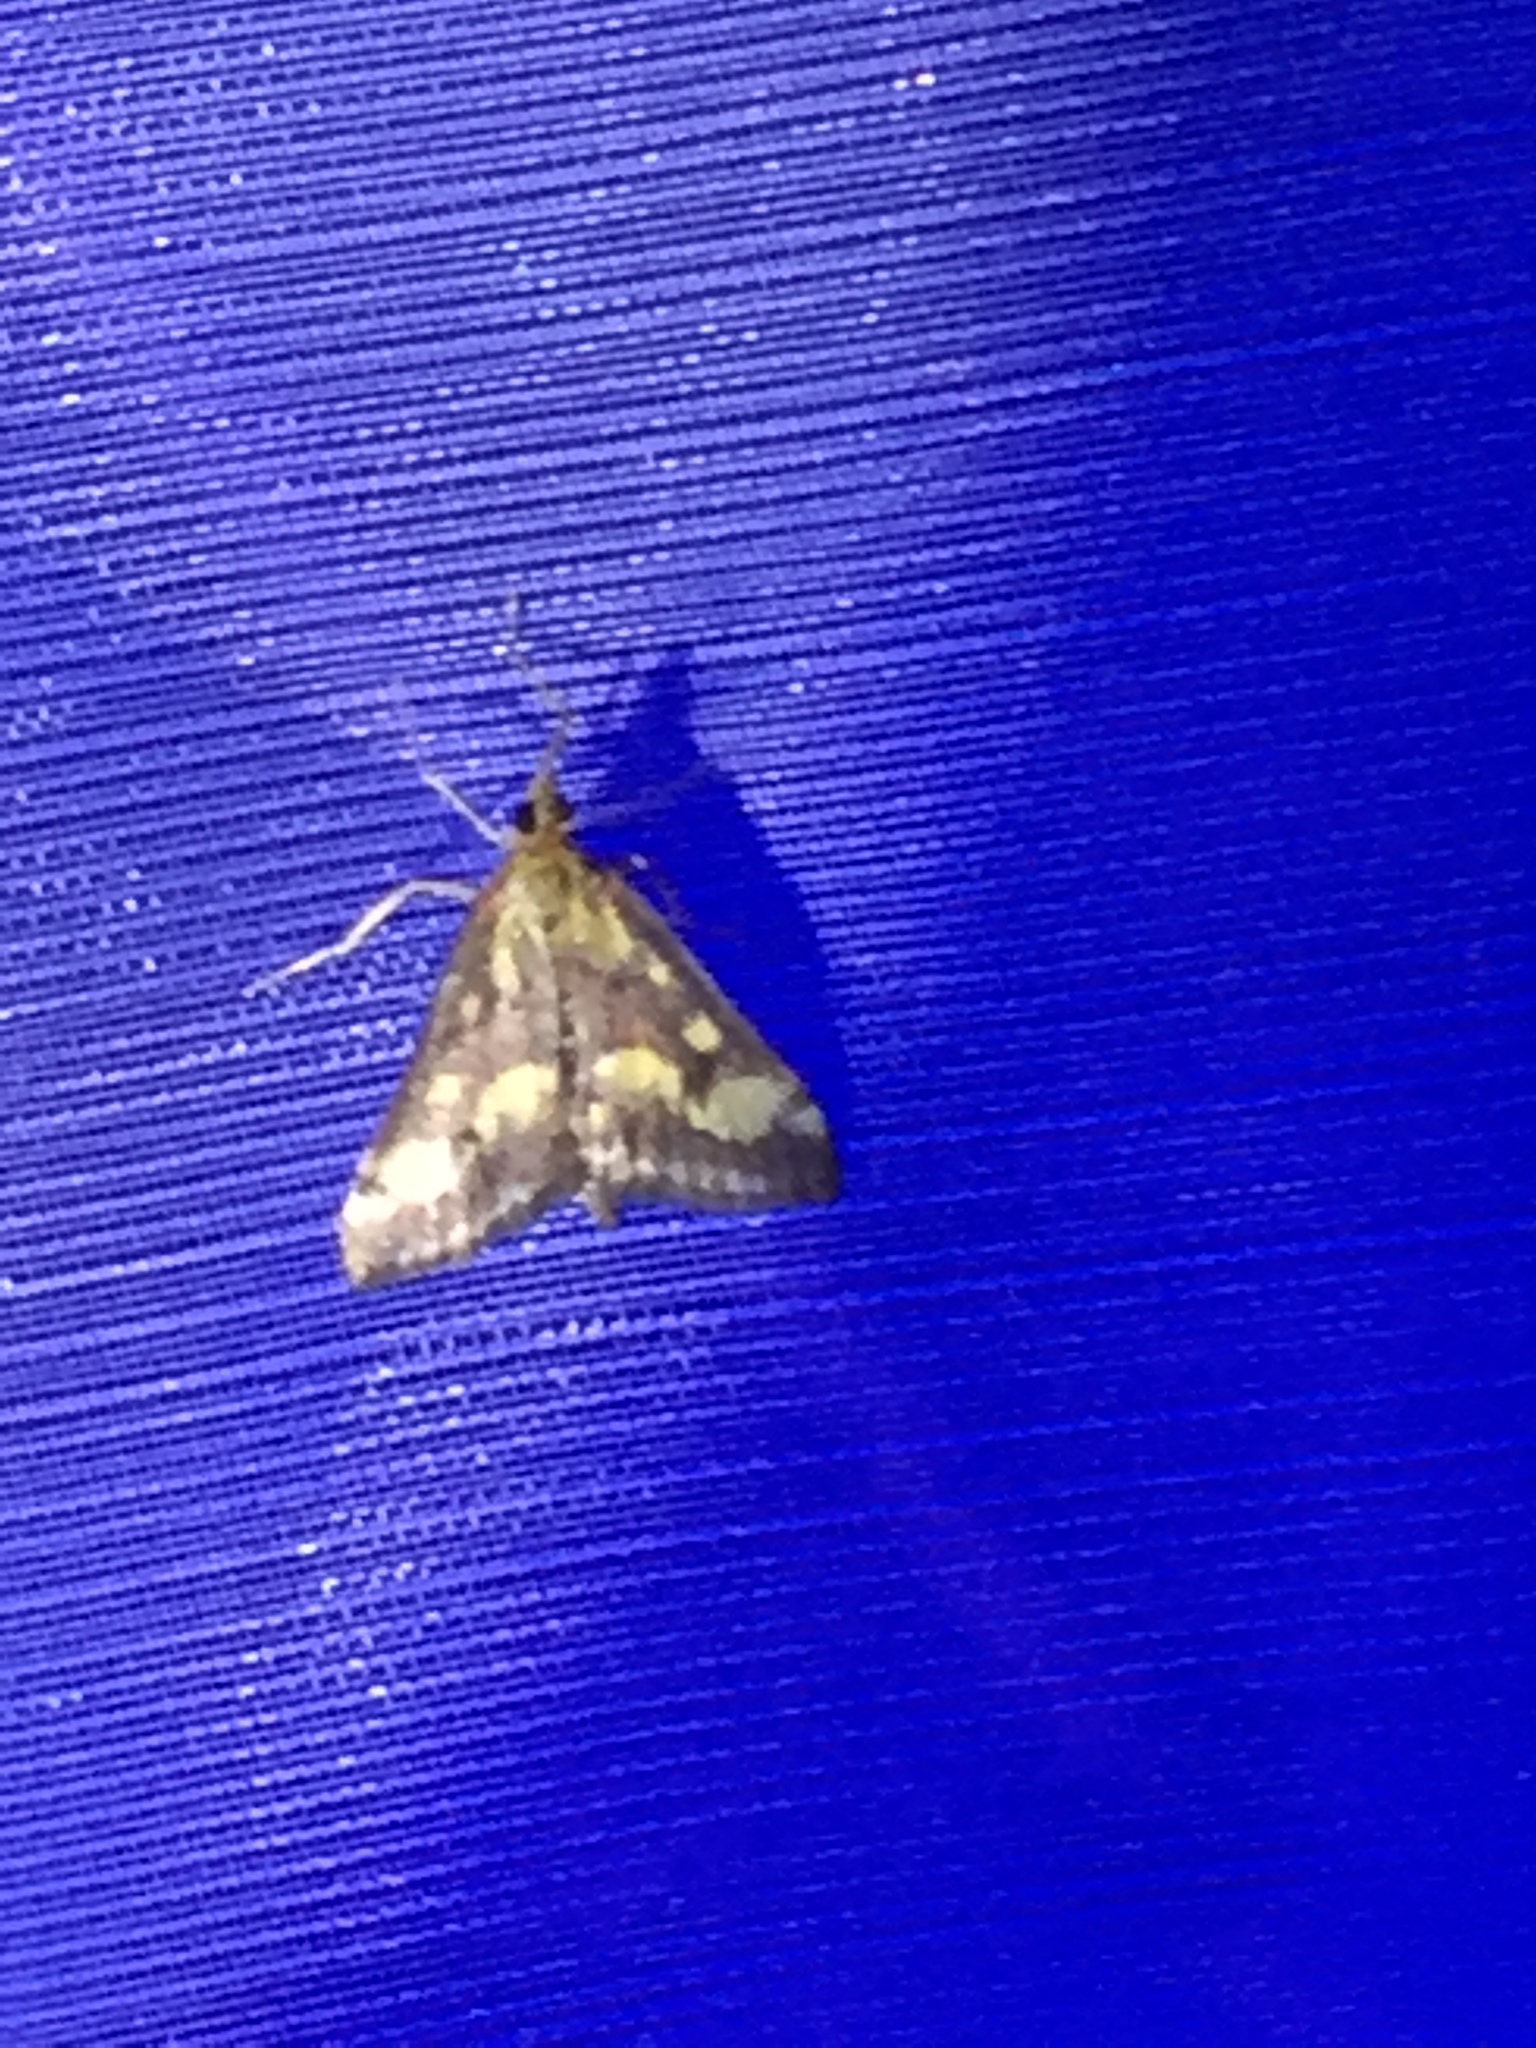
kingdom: Animalia
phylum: Arthropoda
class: Insecta
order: Lepidoptera
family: Crambidae
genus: Pyrausta
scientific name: Pyrausta purpuralis
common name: Common purple & gold
